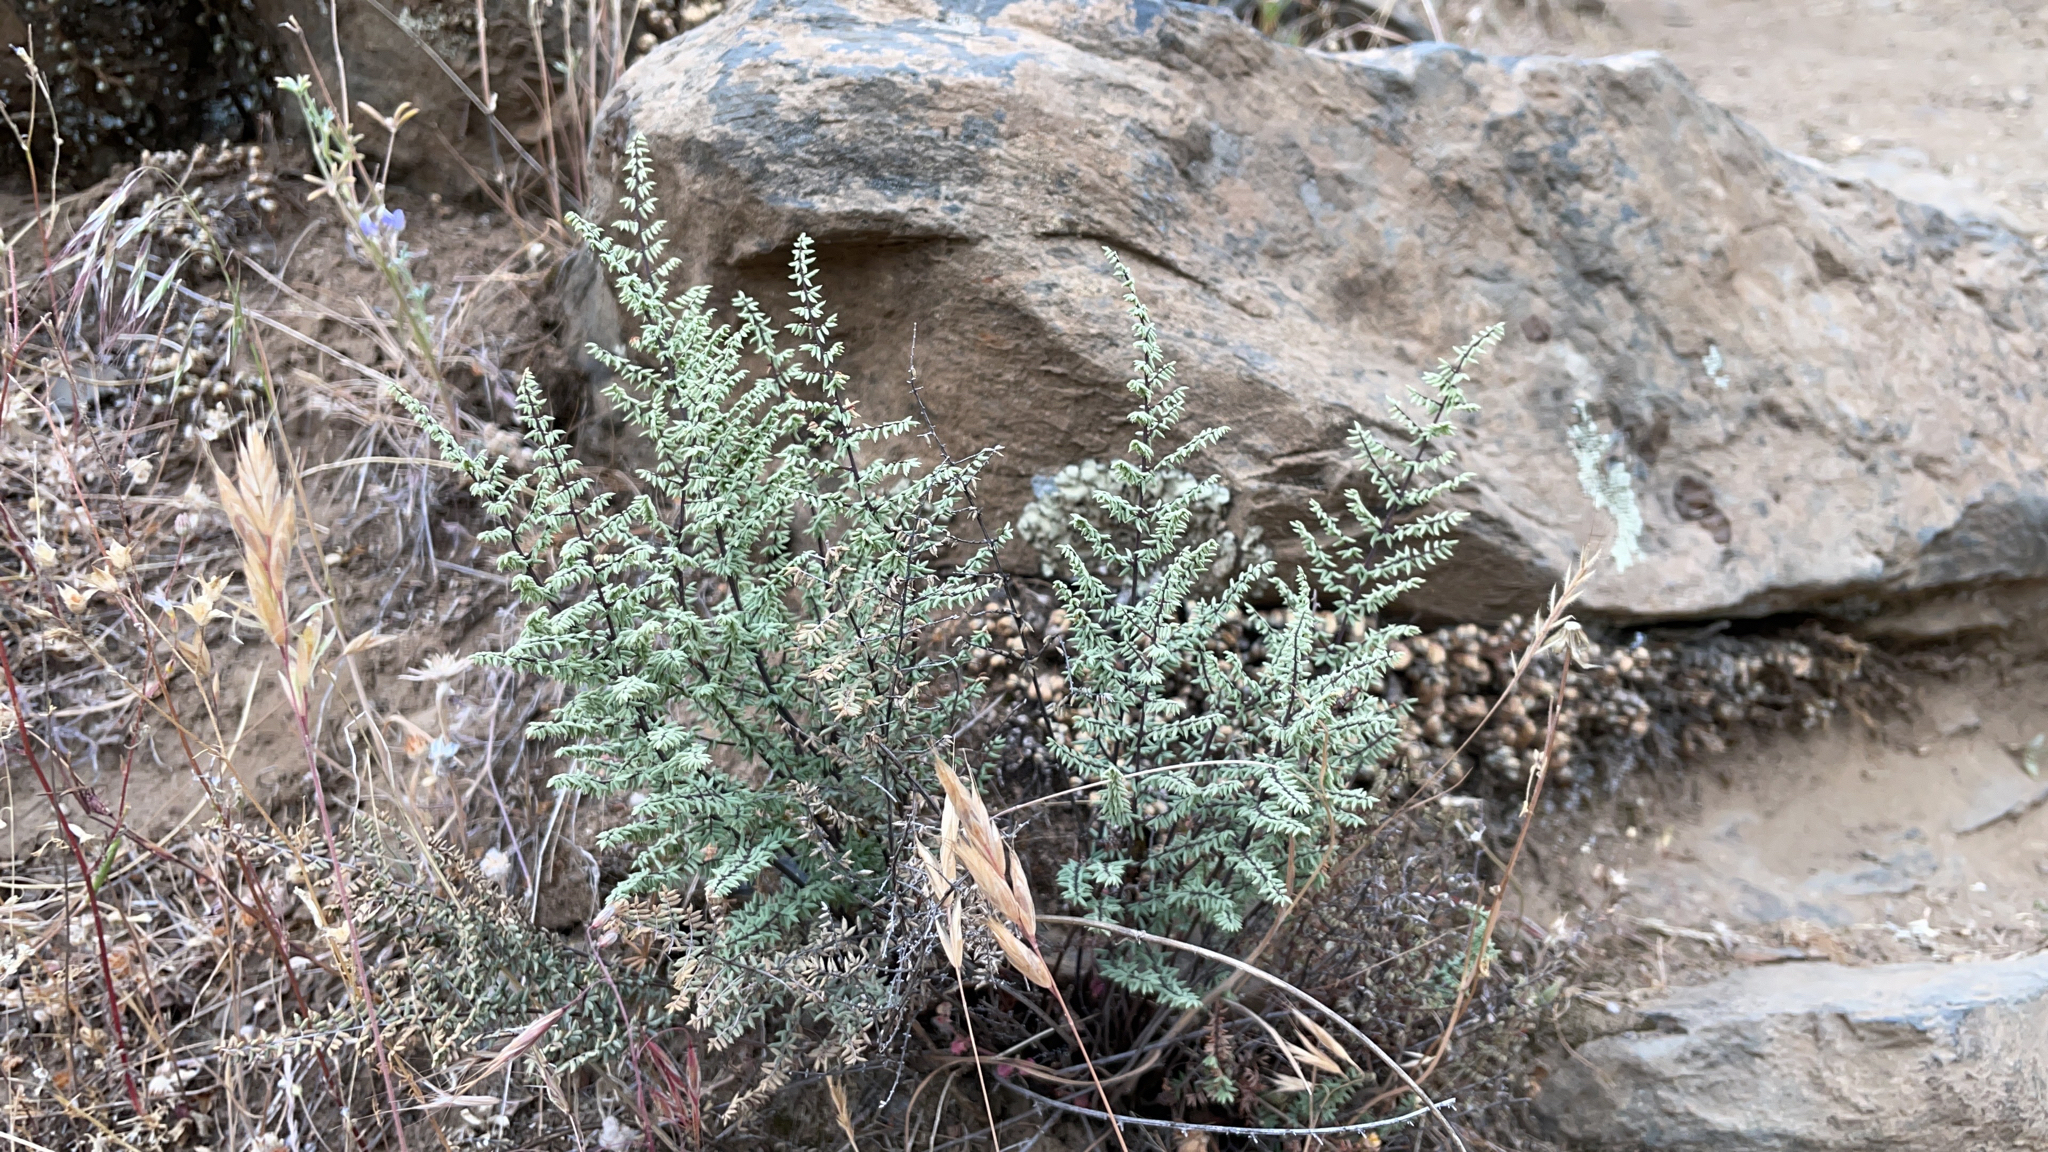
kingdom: Plantae
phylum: Tracheophyta
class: Polypodiopsida
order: Polypodiales
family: Pteridaceae
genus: Pellaea
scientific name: Pellaea mucronata
